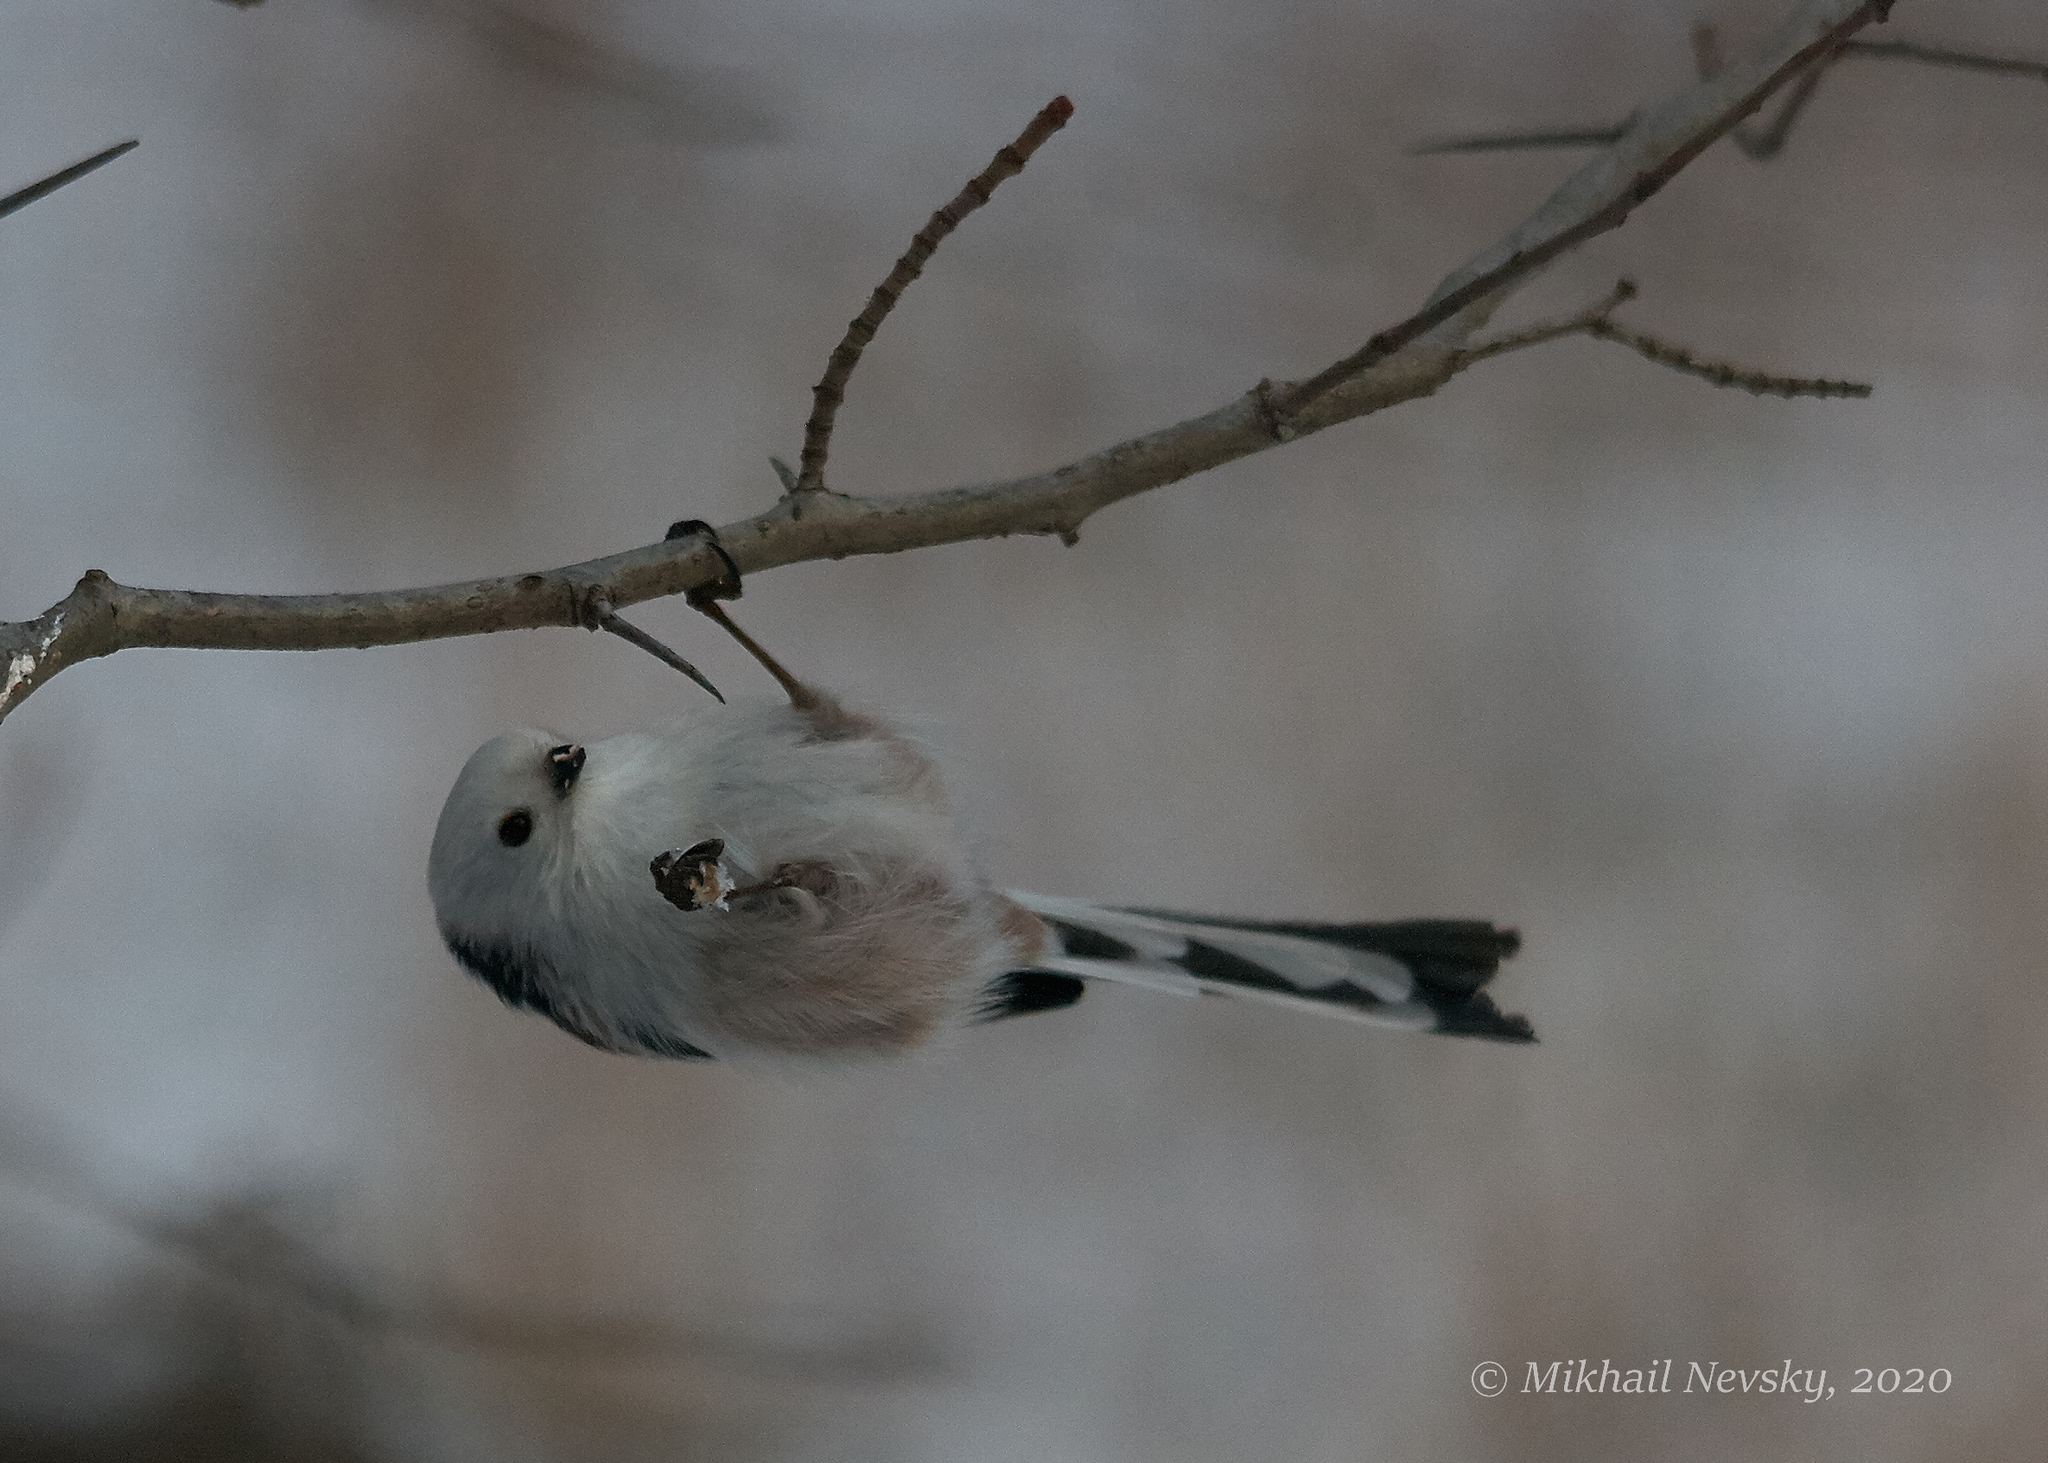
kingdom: Animalia
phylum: Chordata
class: Aves
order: Passeriformes
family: Aegithalidae
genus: Aegithalos
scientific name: Aegithalos caudatus
